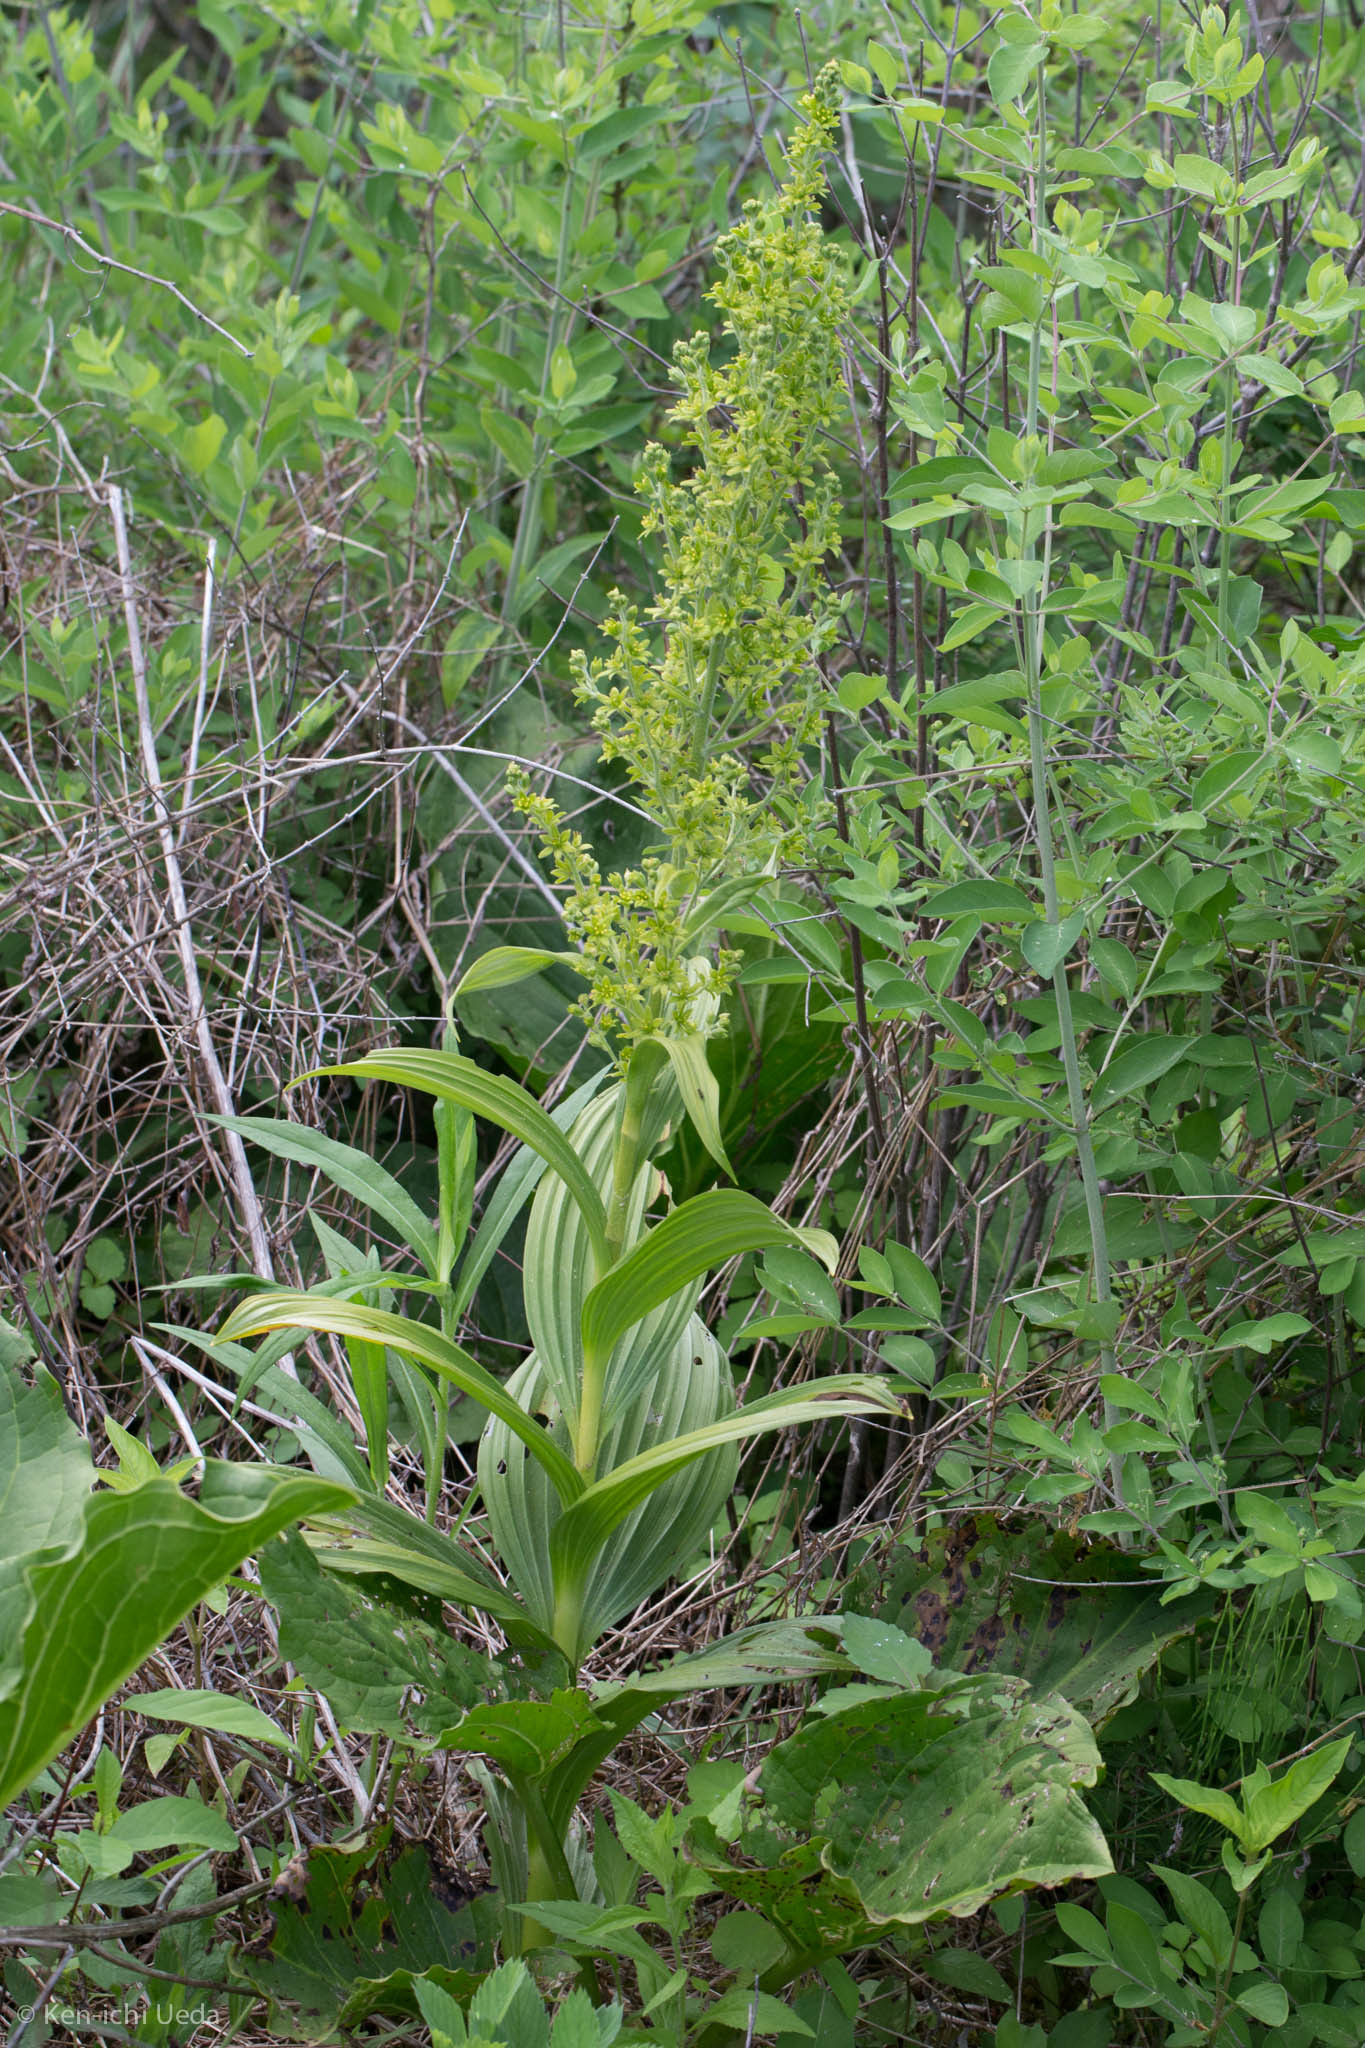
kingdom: Plantae
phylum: Tracheophyta
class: Liliopsida
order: Liliales
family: Melanthiaceae
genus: Veratrum
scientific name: Veratrum viride
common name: American false hellebore
